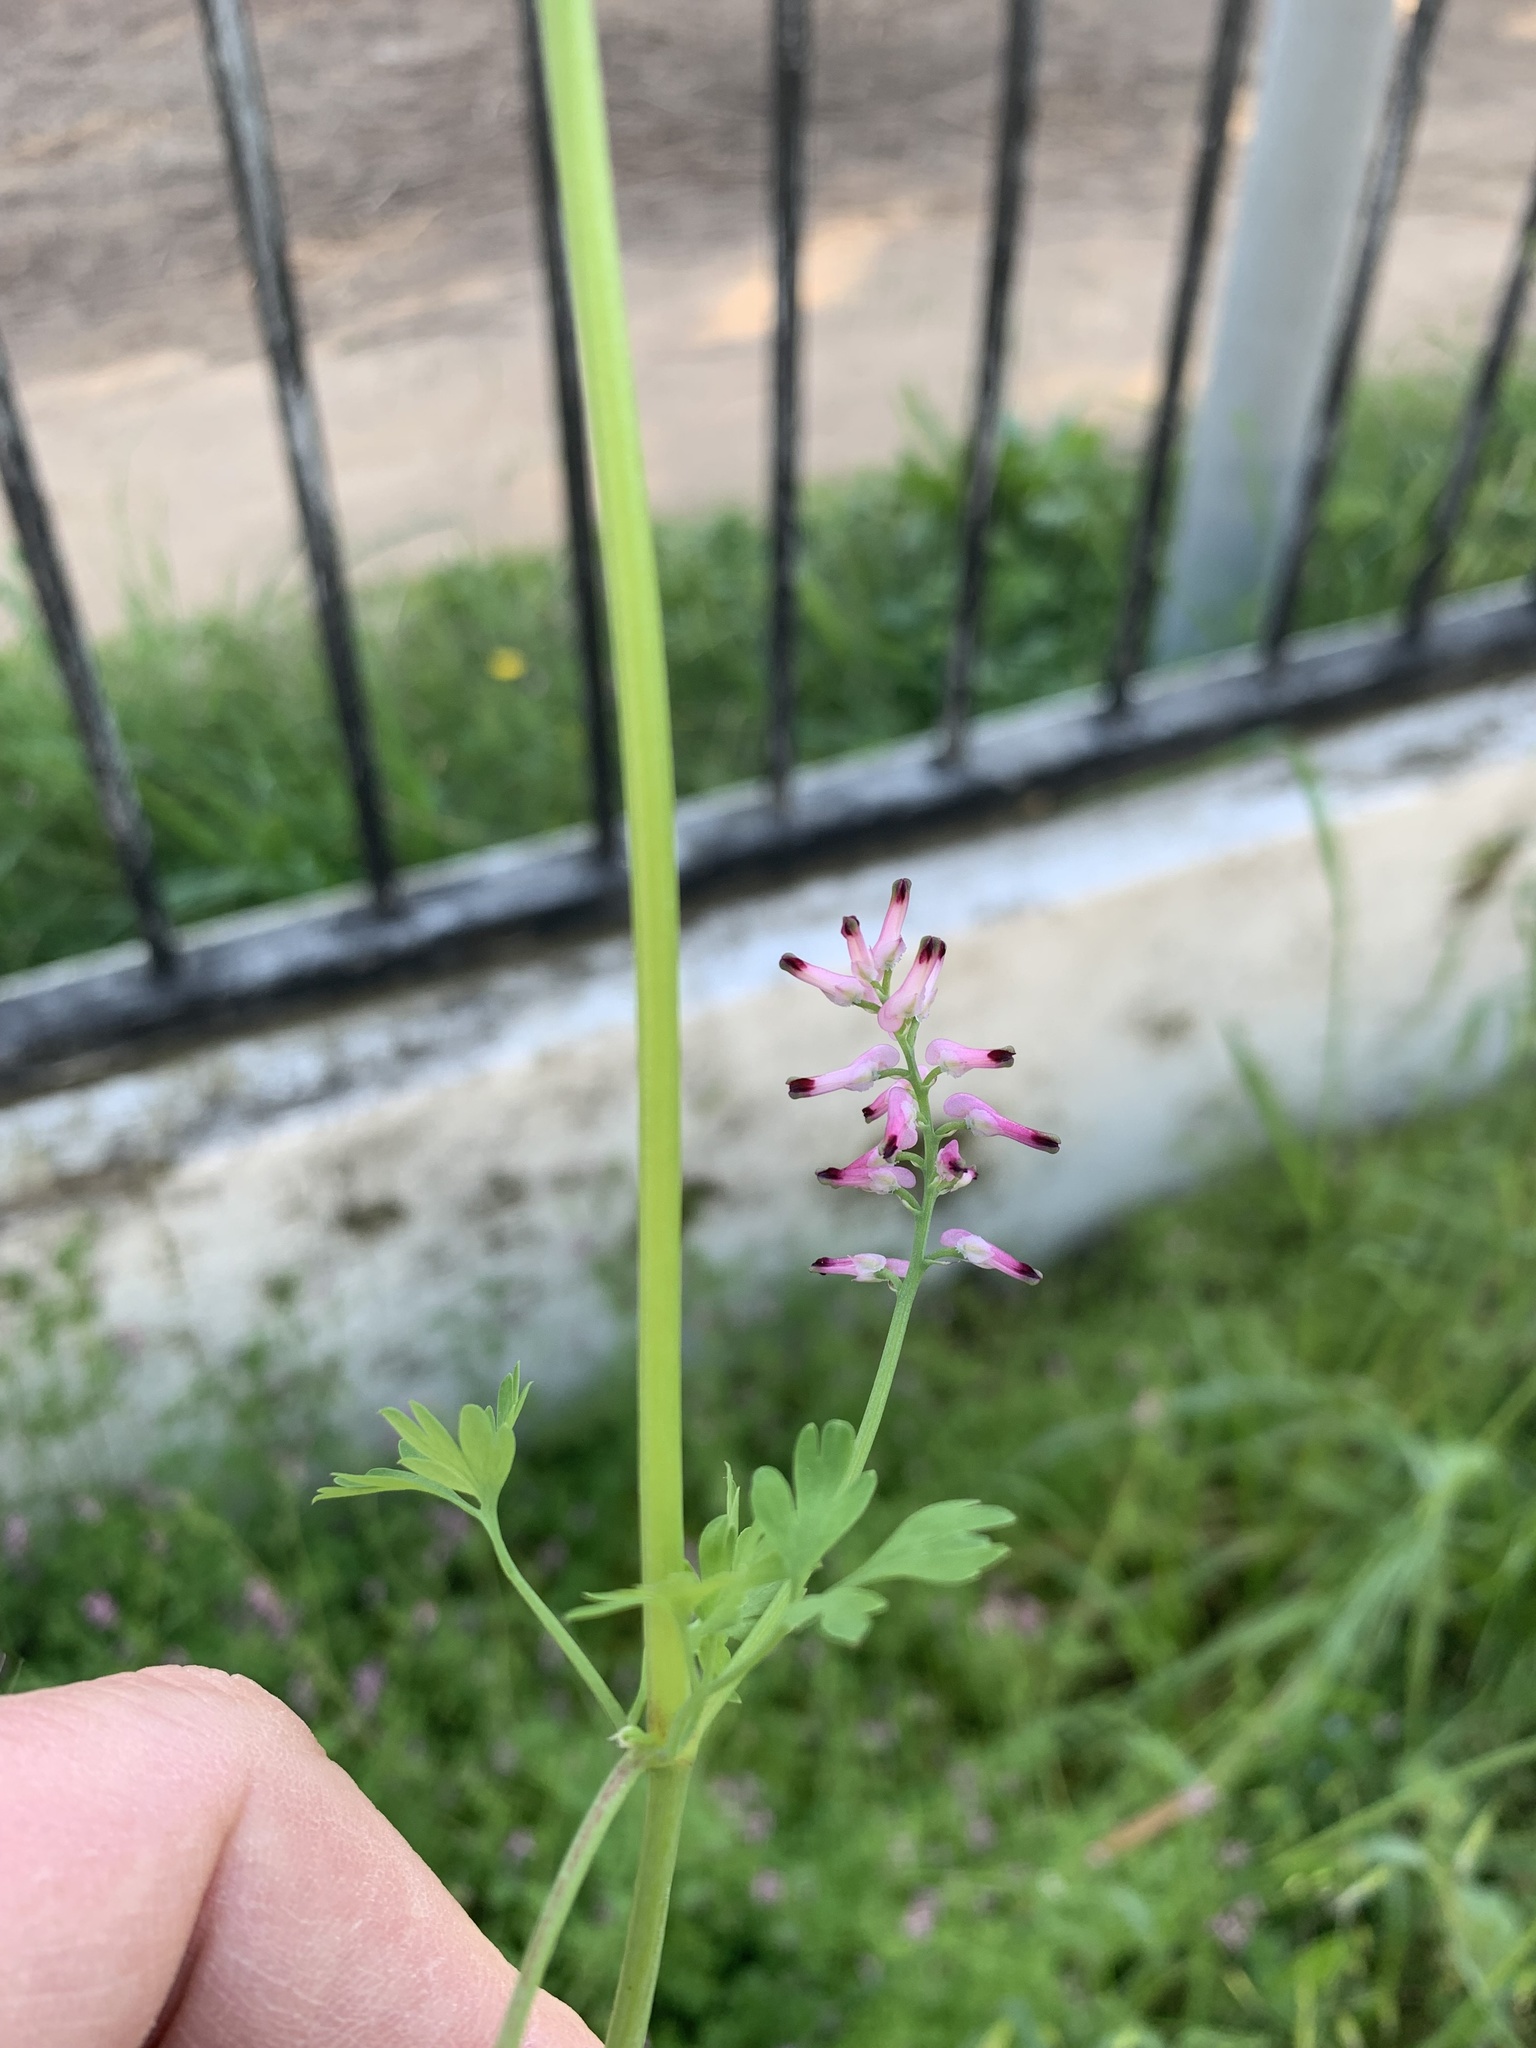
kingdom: Plantae
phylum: Tracheophyta
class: Magnoliopsida
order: Ranunculales
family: Papaveraceae
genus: Fumaria
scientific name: Fumaria muralis
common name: Common ramping-fumitory
